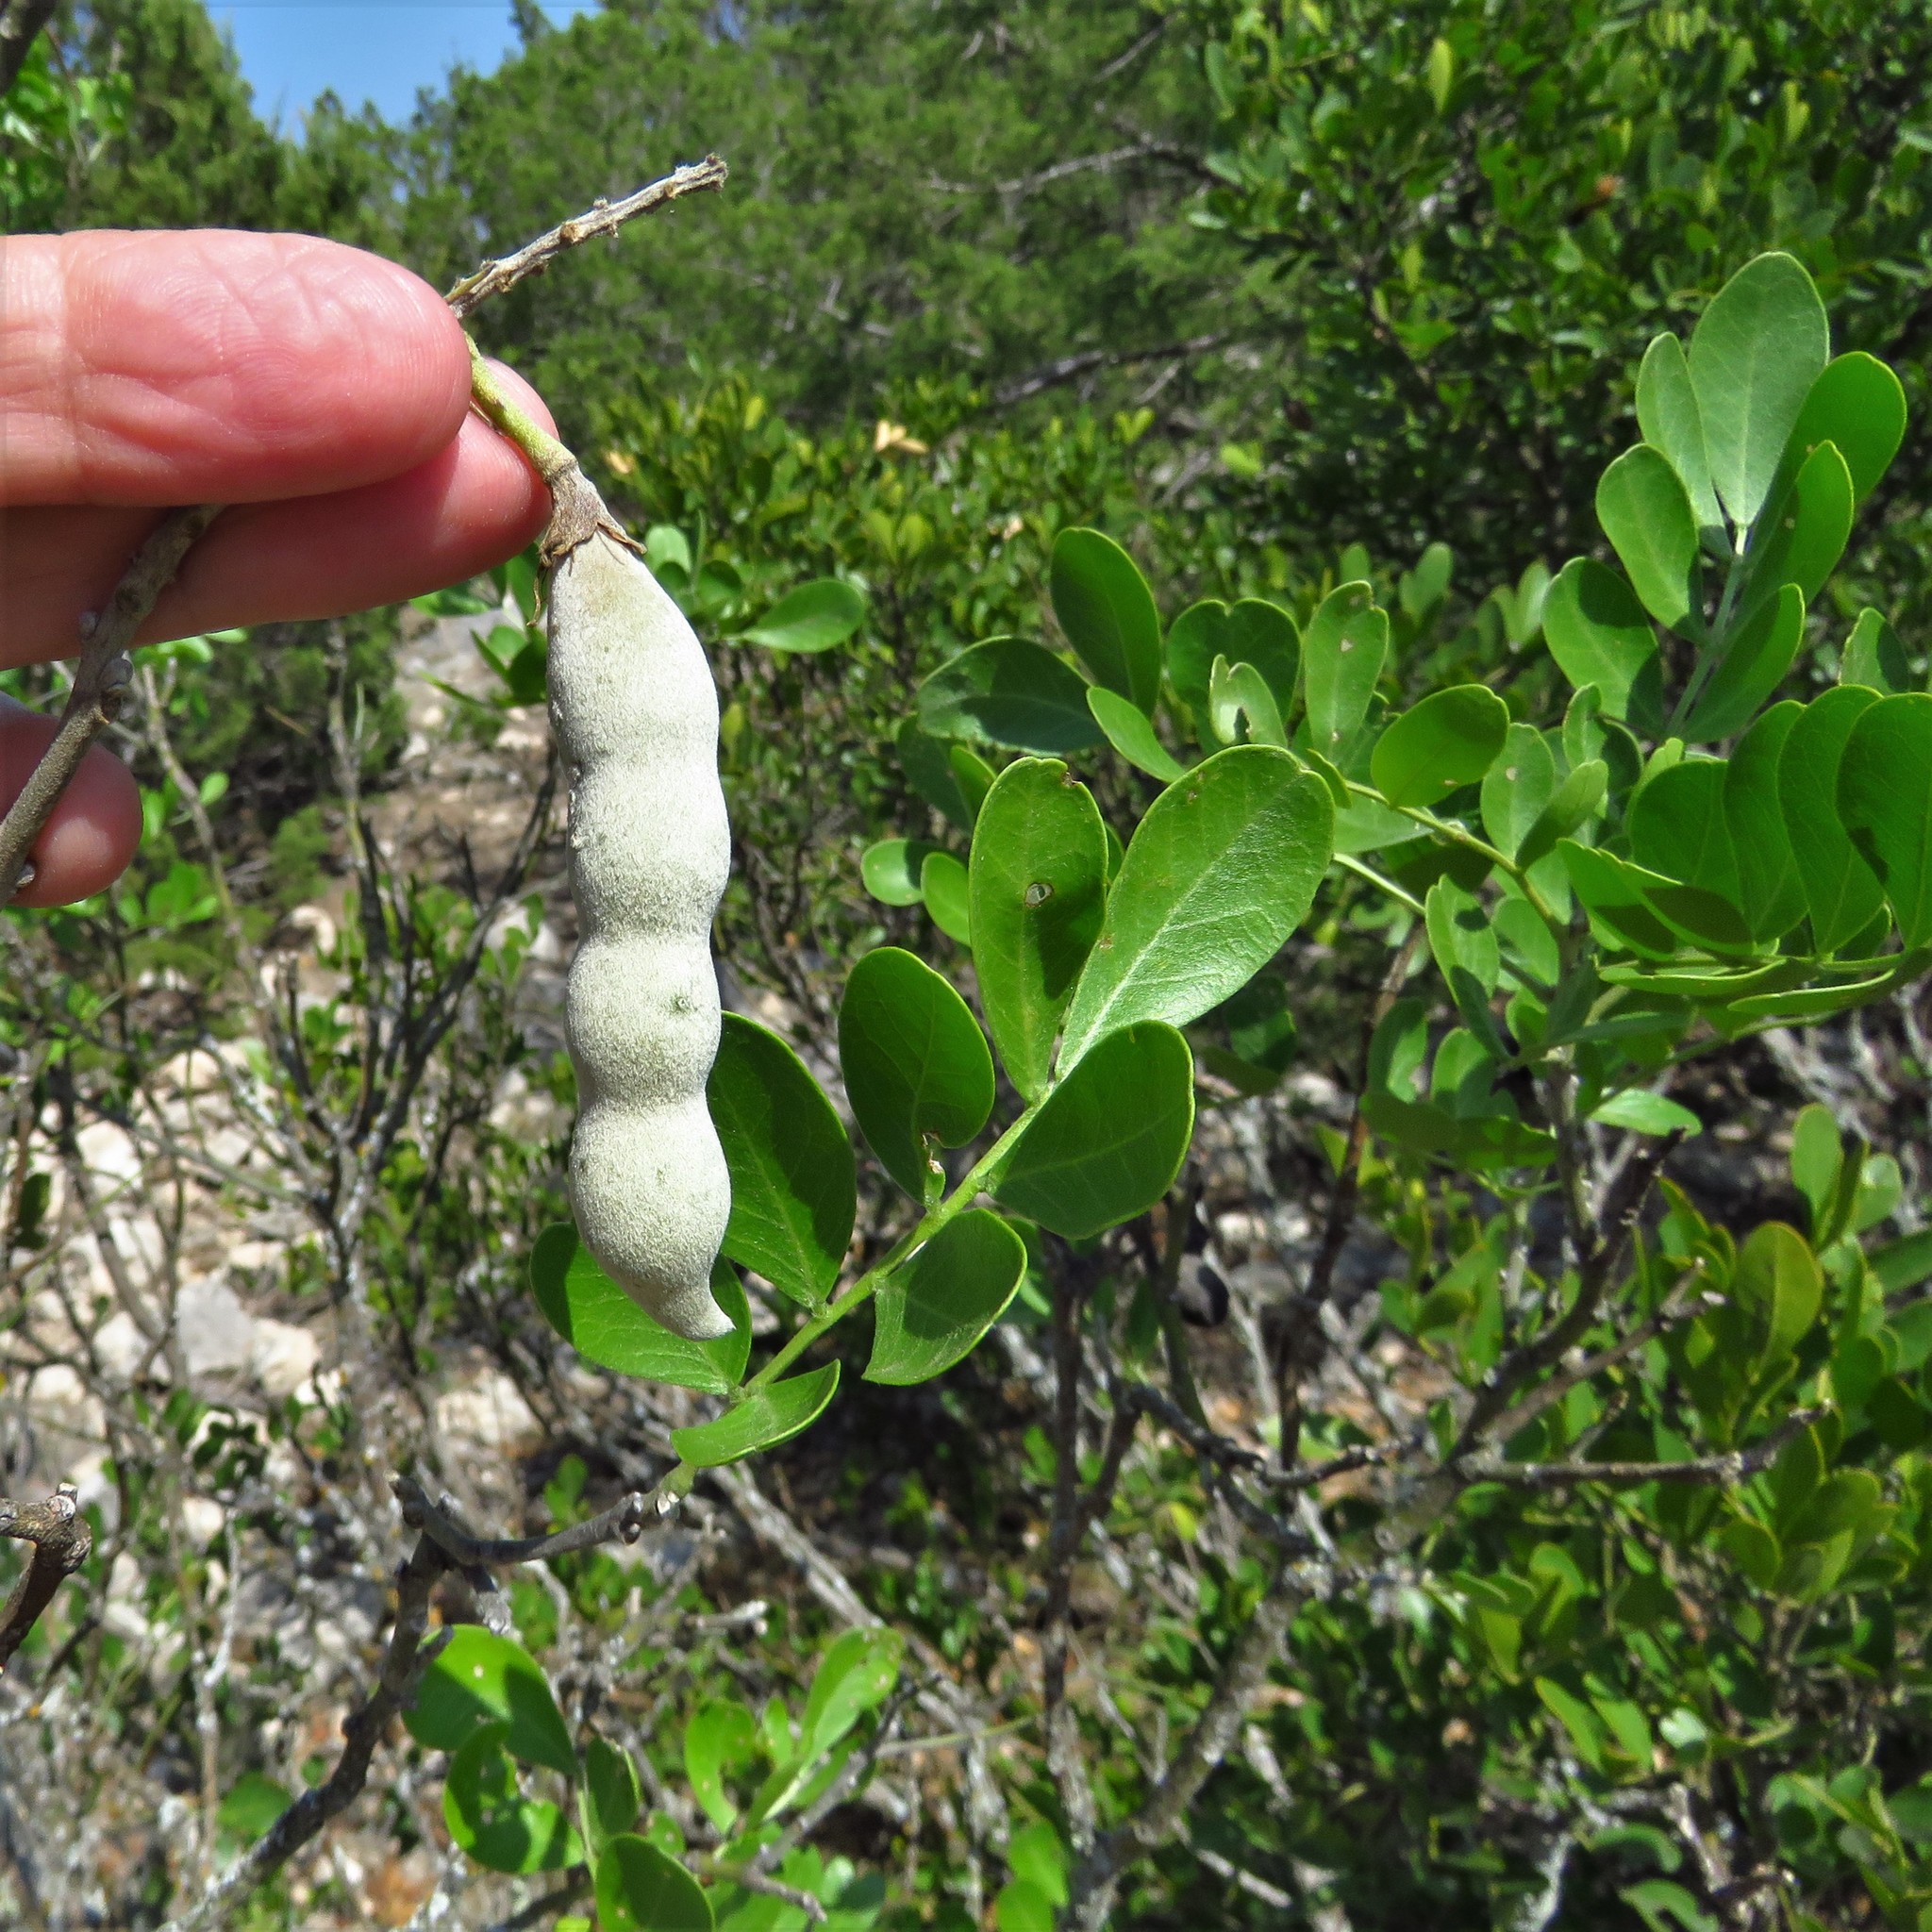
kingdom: Plantae
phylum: Tracheophyta
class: Magnoliopsida
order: Fabales
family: Fabaceae
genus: Dermatophyllum
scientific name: Dermatophyllum secundiflorum
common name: Texas-mountain-laurel
